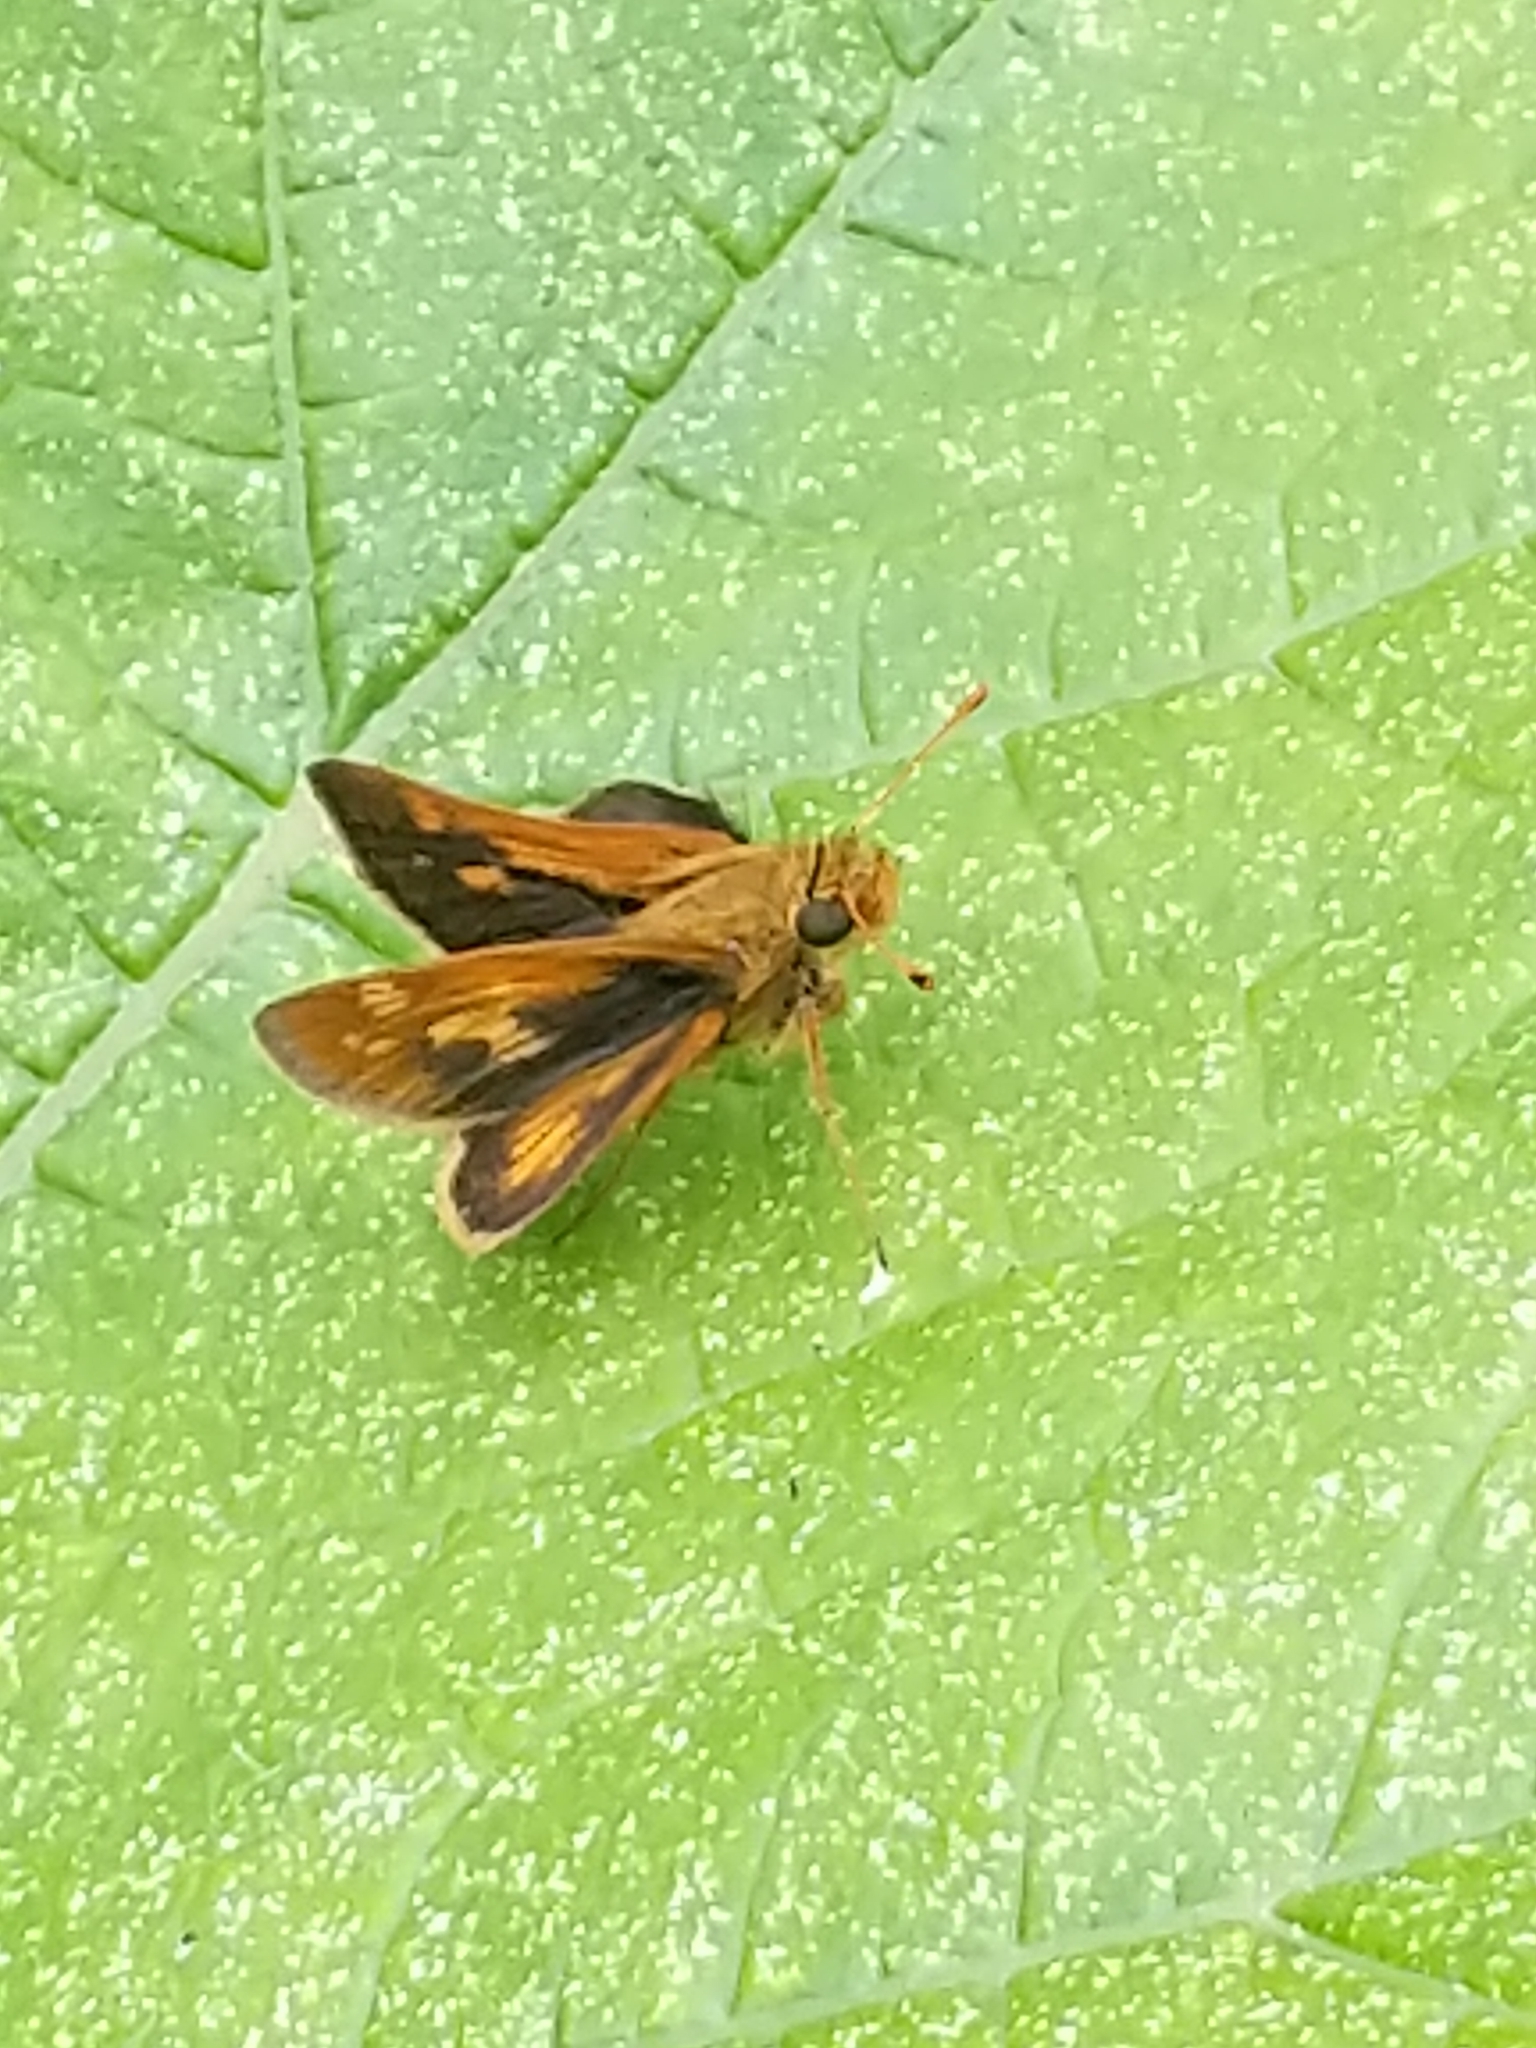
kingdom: Animalia
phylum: Arthropoda
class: Insecta
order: Lepidoptera
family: Hesperiidae
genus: Polites
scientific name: Polites coras
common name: Peck's skipper
